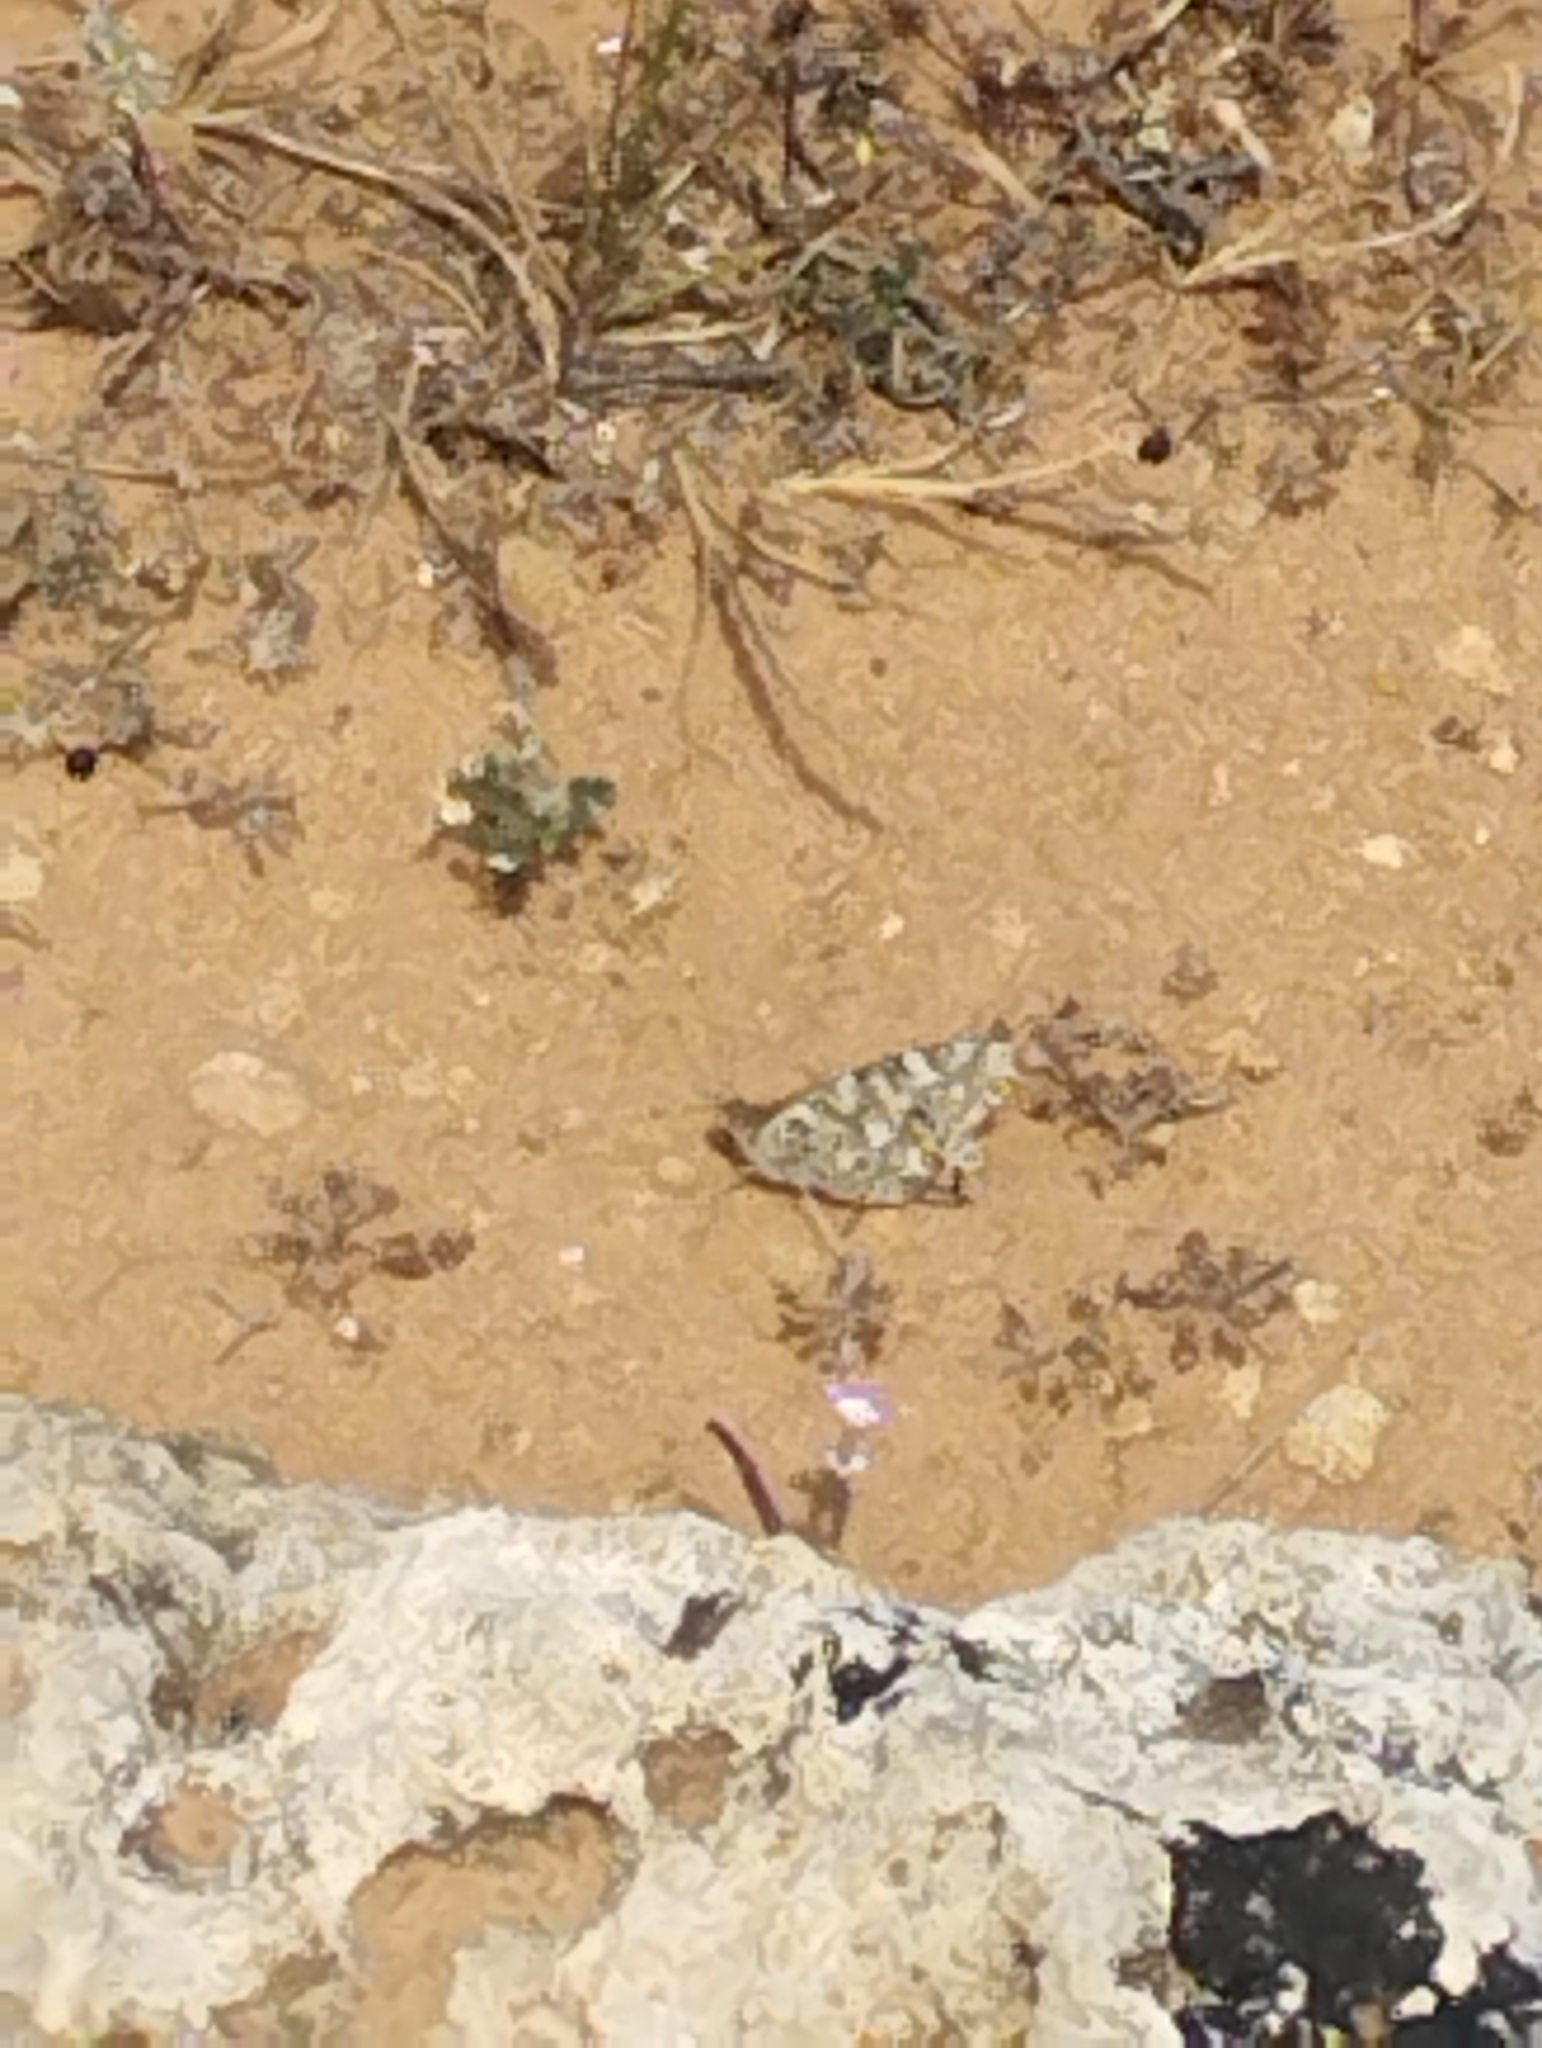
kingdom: Animalia
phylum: Arthropoda
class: Insecta
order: Lepidoptera
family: Nymphalidae
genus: Vanessa
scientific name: Vanessa cardui
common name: Painted lady
